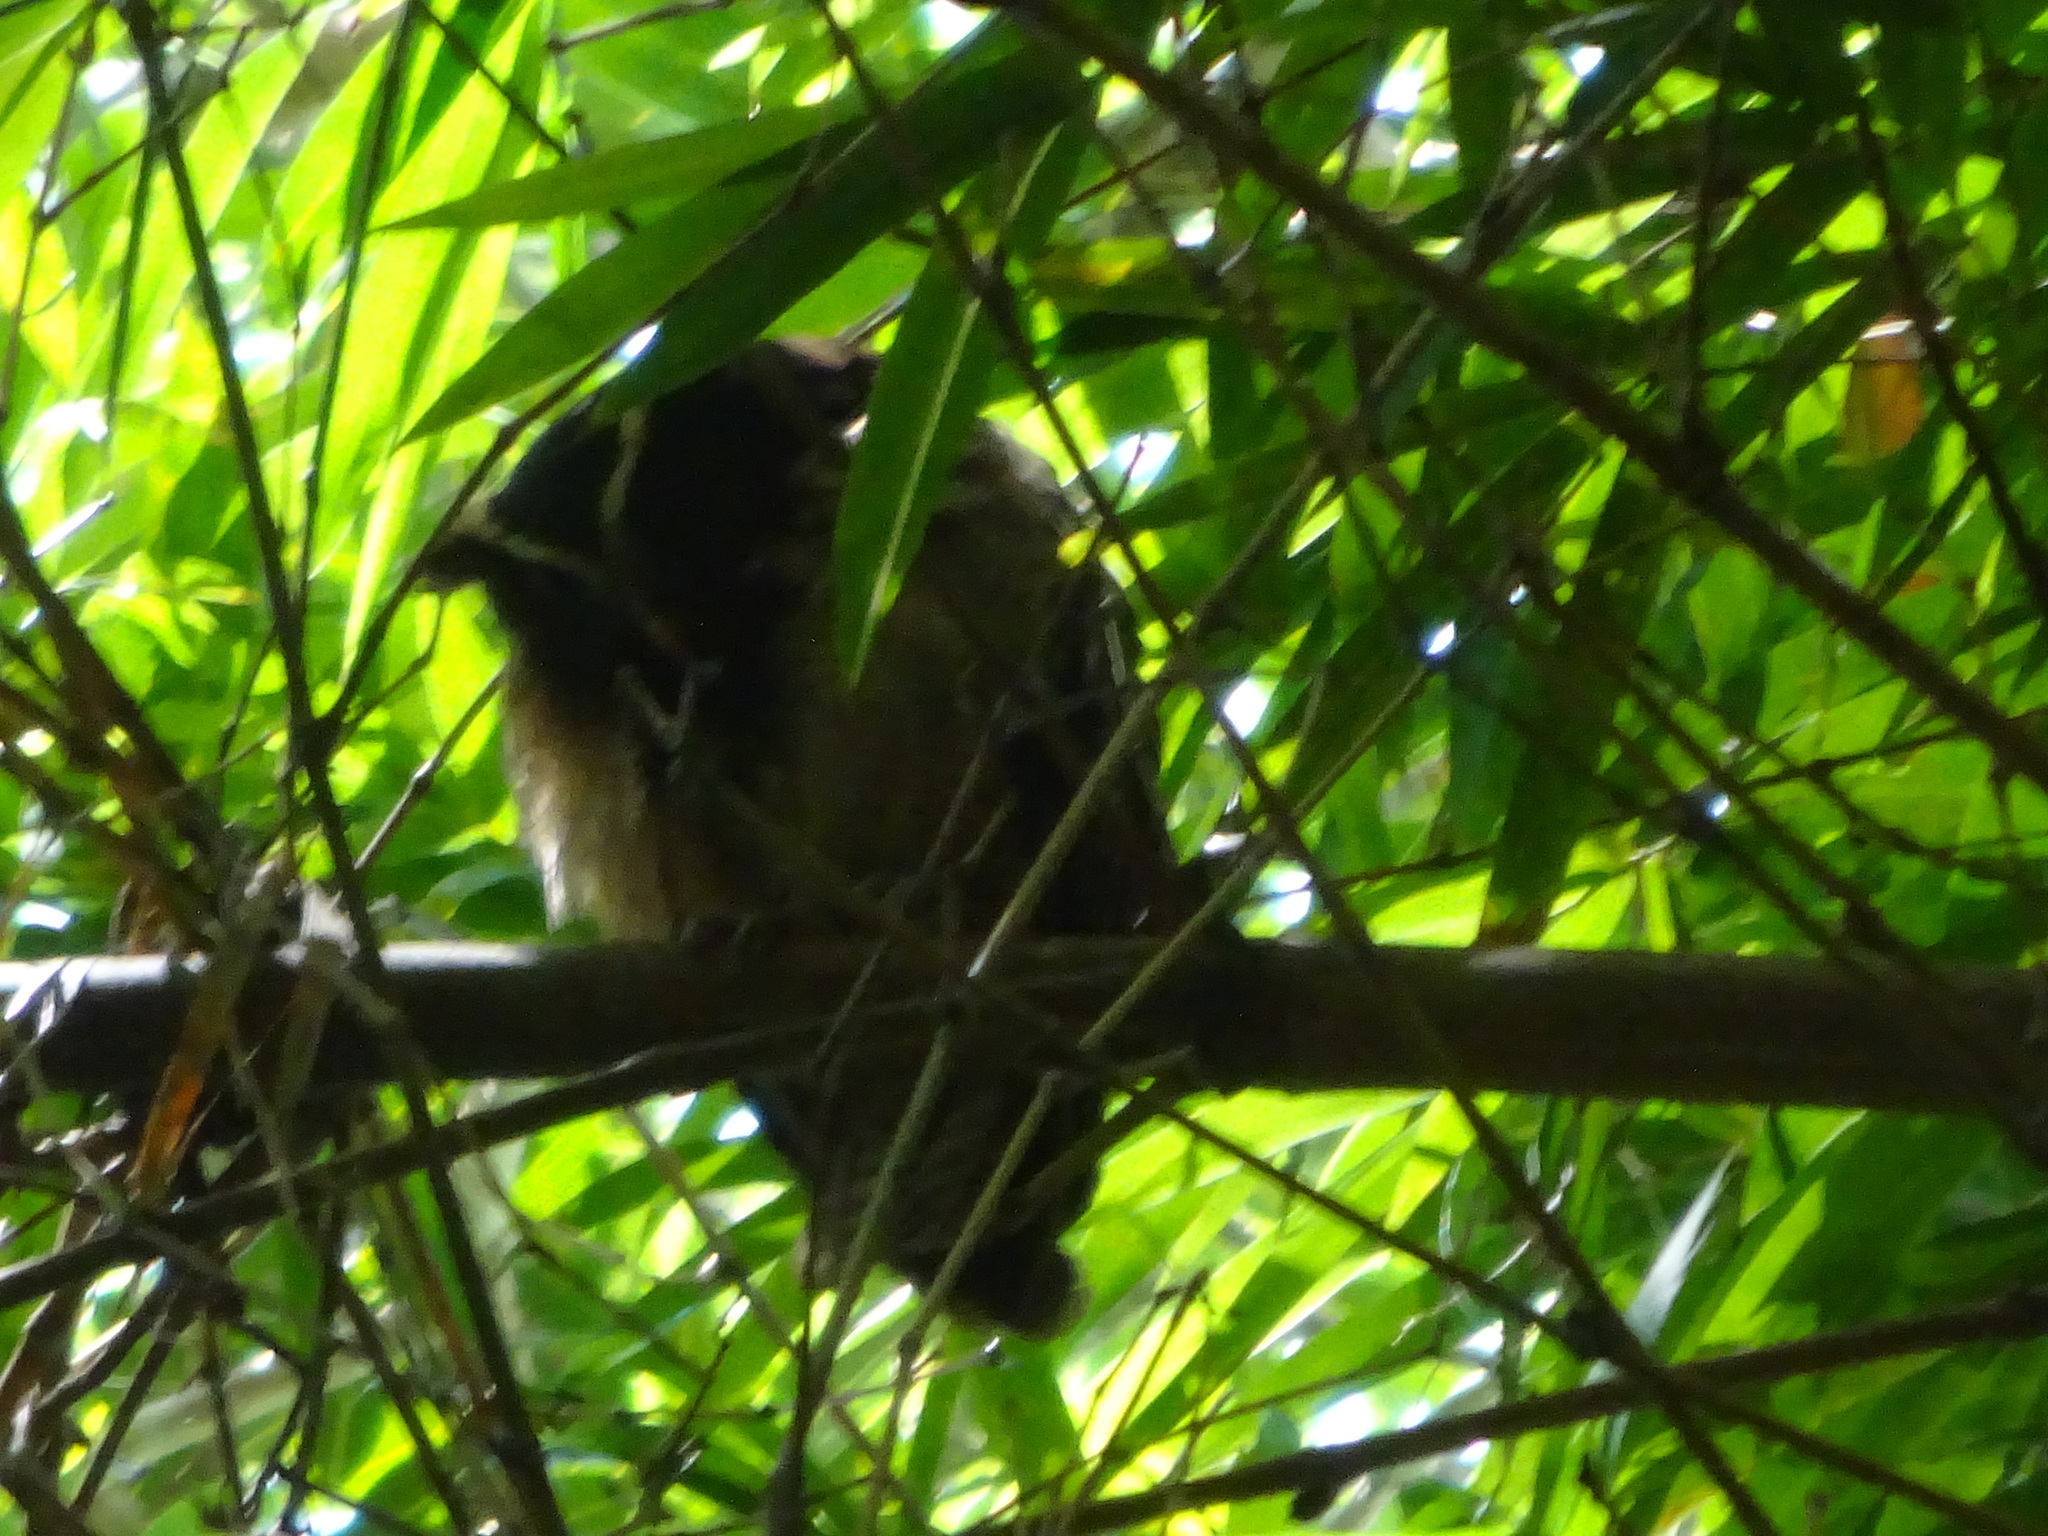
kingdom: Animalia
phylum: Chordata
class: Aves
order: Strigiformes
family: Strigidae
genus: Lophostrix
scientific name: Lophostrix cristata
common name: Crested owl
